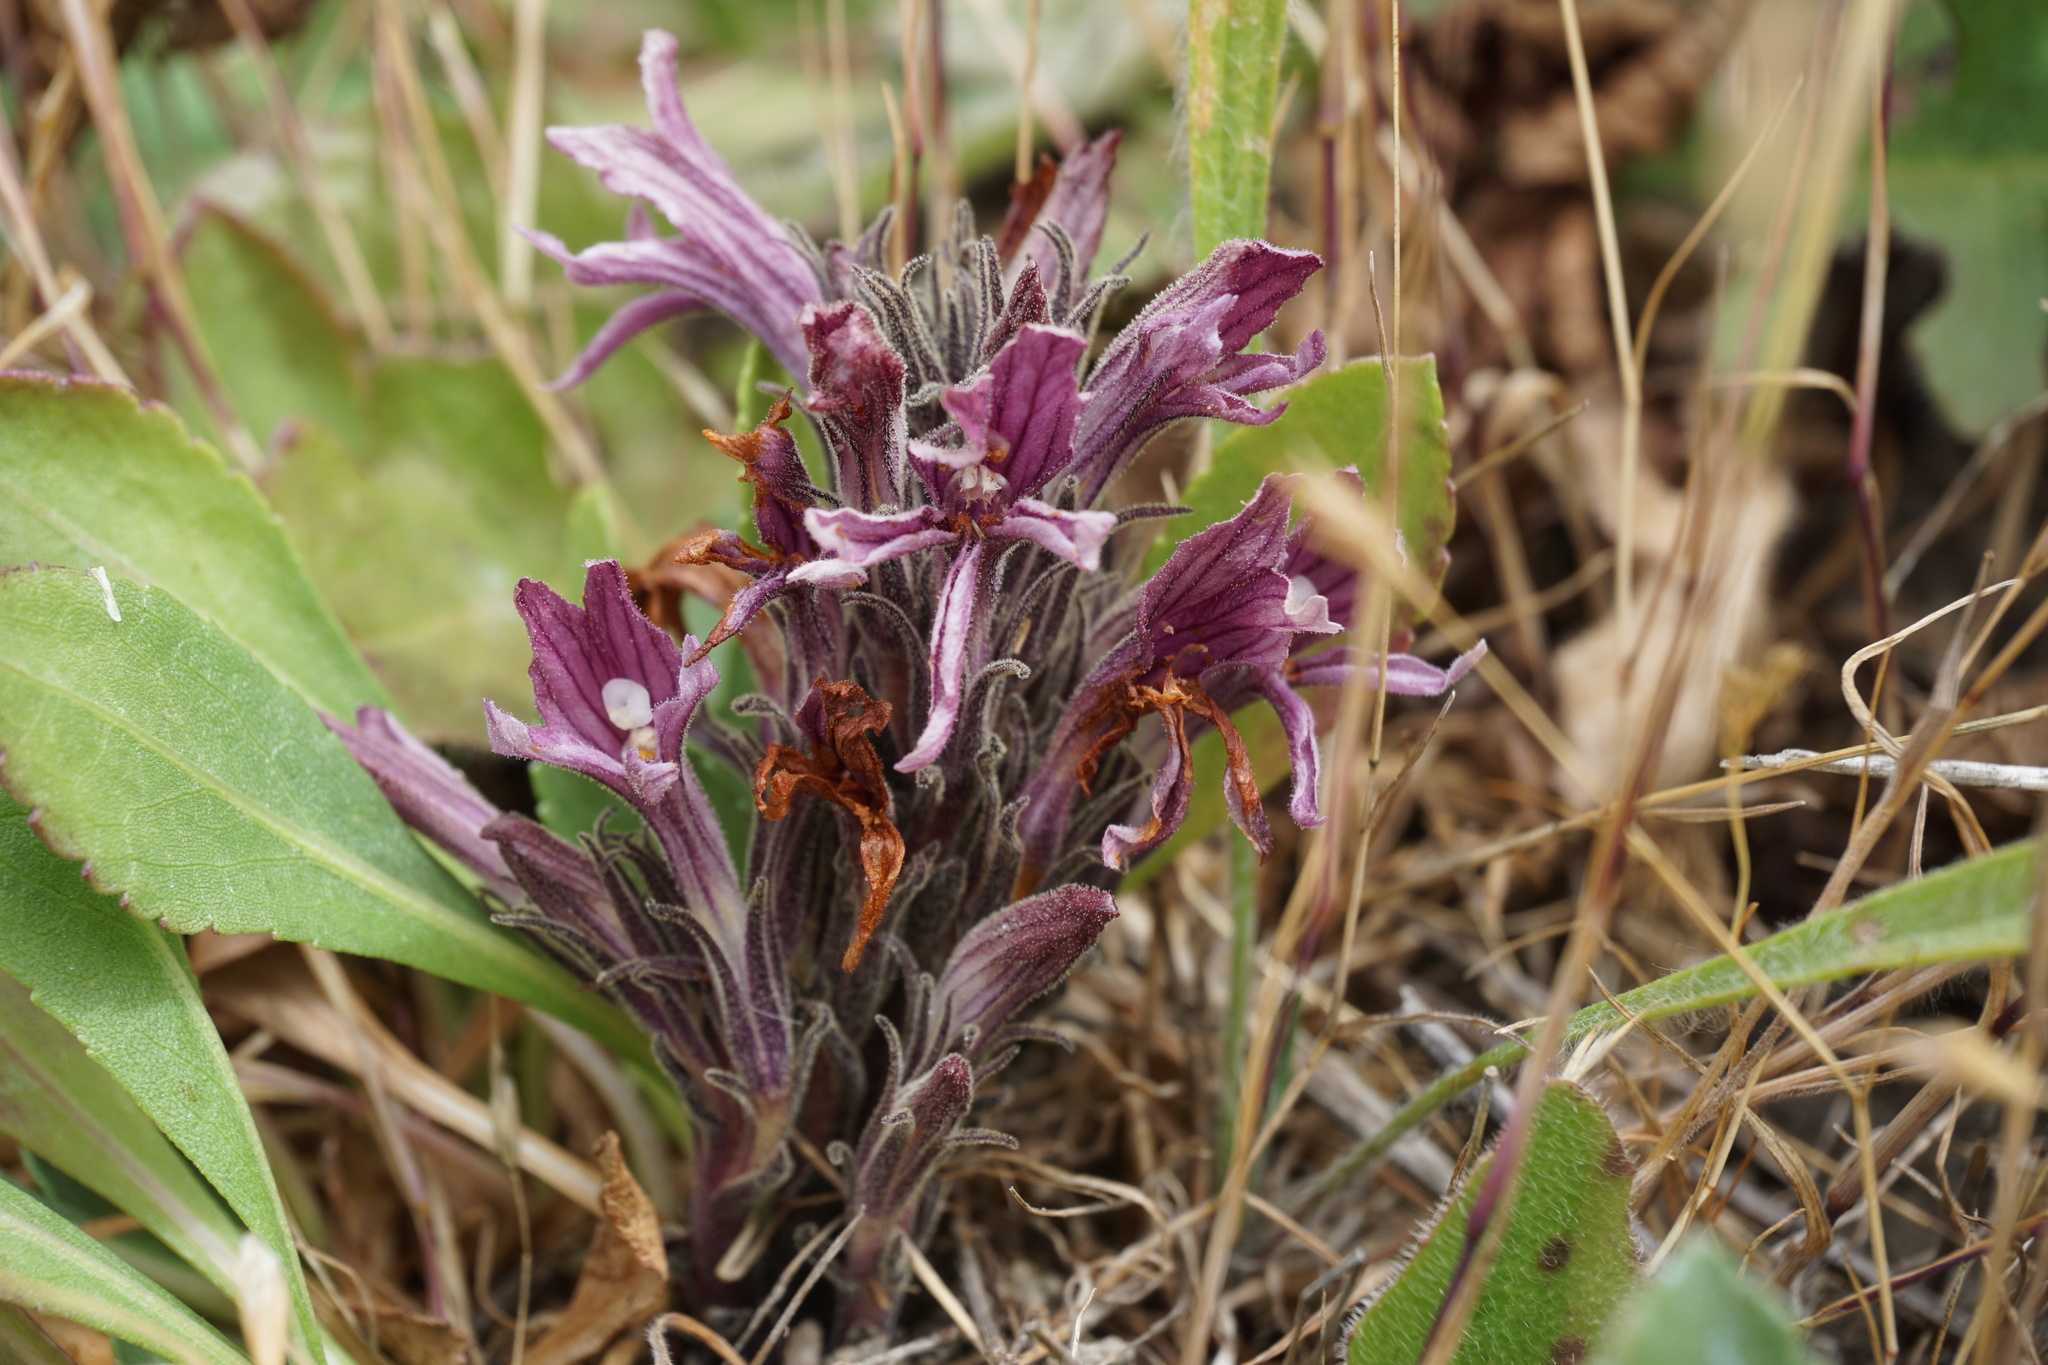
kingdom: Plantae
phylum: Tracheophyta
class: Magnoliopsida
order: Lamiales
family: Orobanchaceae
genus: Aphyllon
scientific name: Aphyllon californicum
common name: California broomrape
